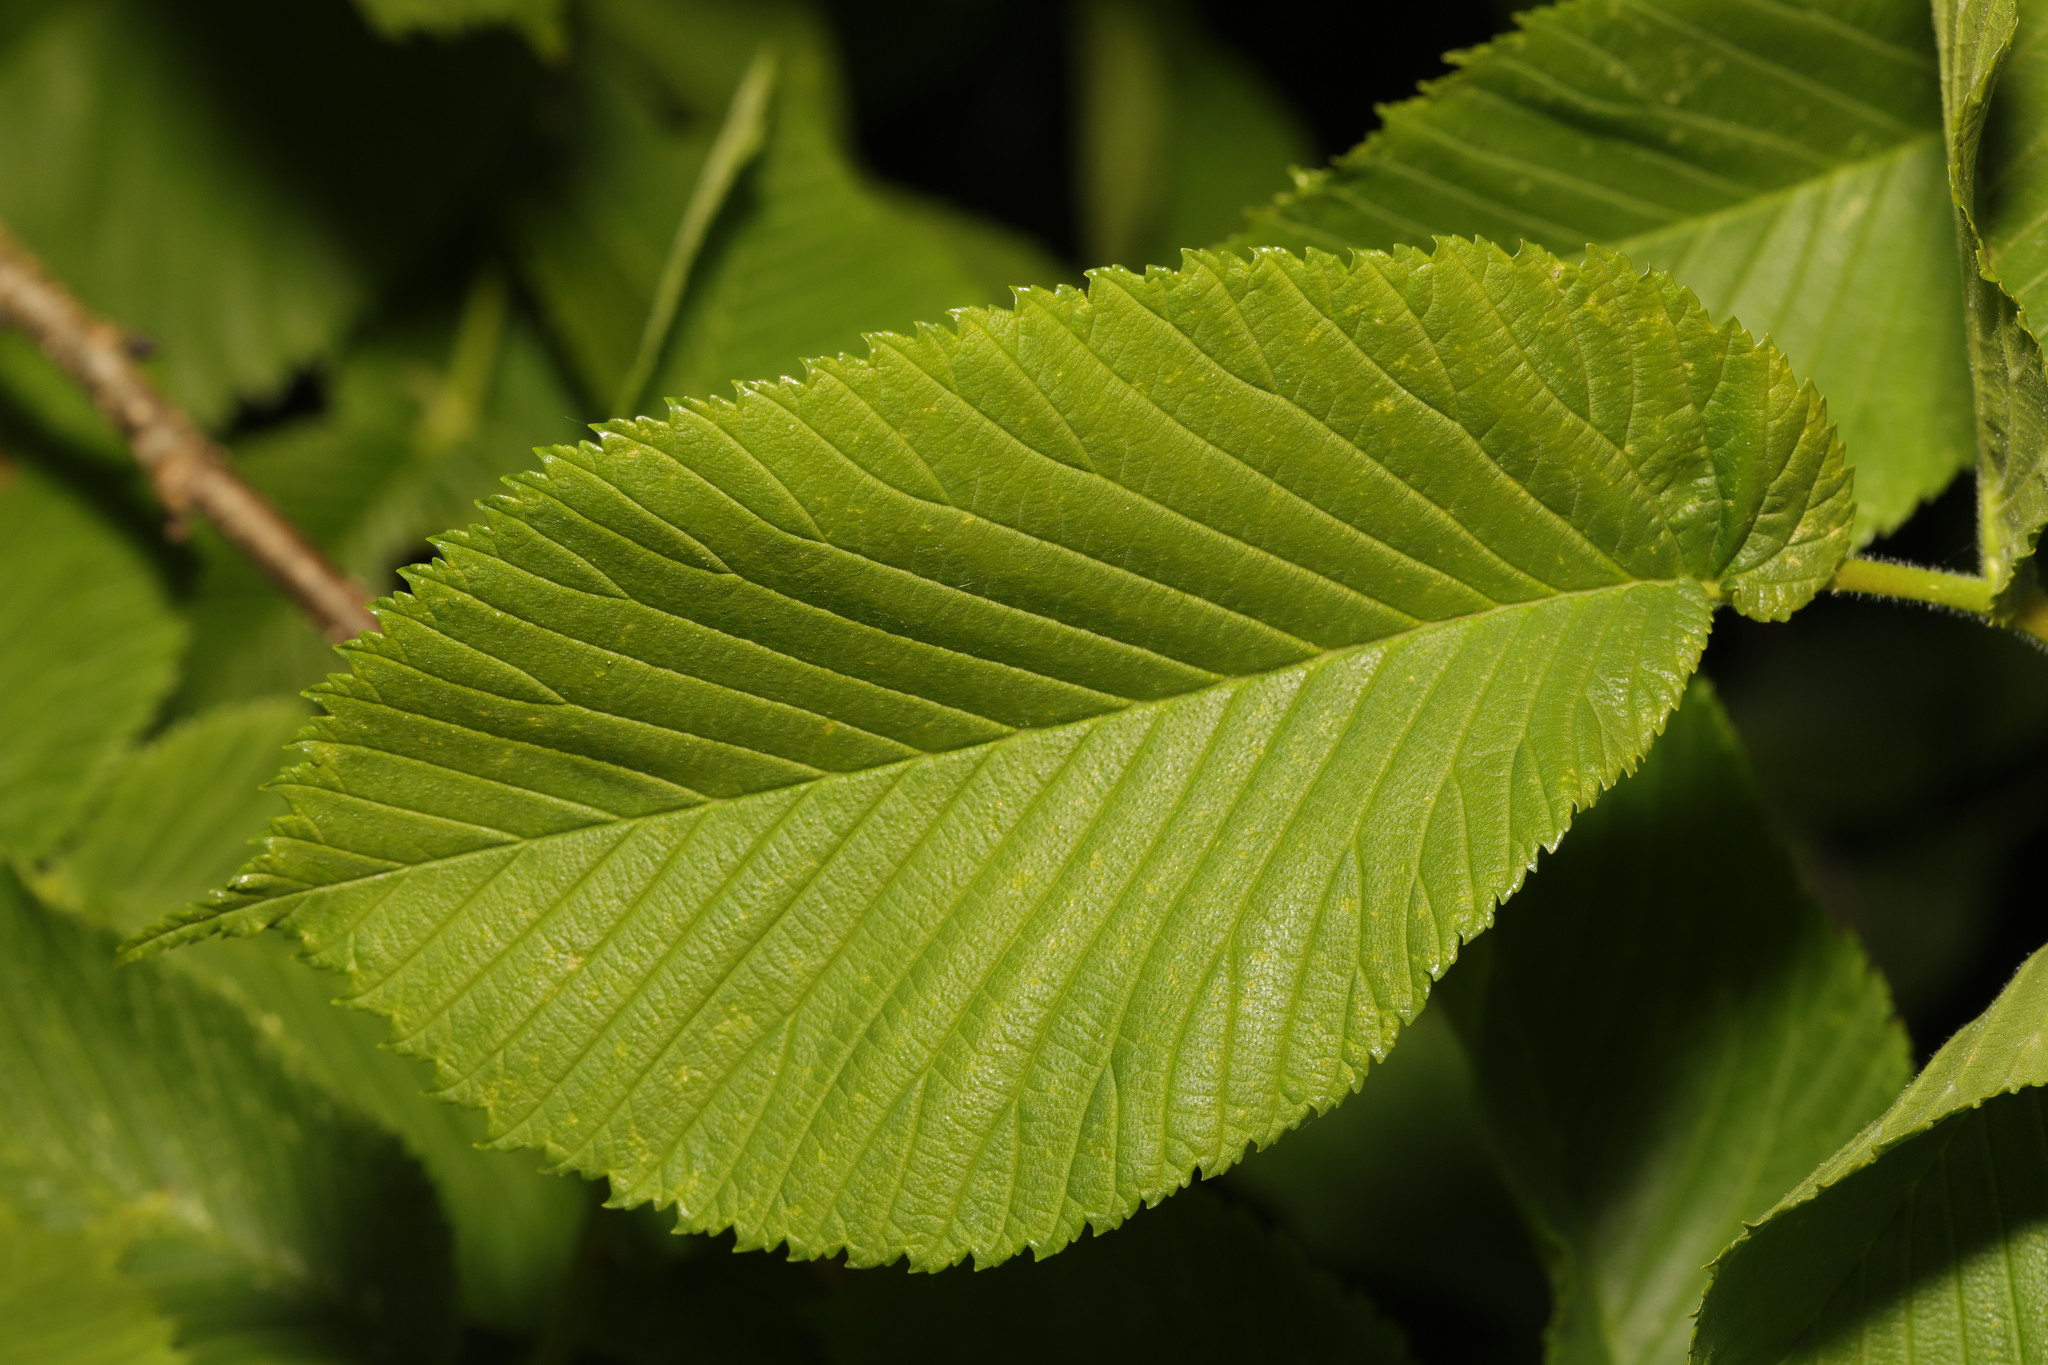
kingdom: Plantae
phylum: Tracheophyta
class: Magnoliopsida
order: Rosales
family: Ulmaceae
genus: Ulmus
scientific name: Ulmus glabra
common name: Wych elm
